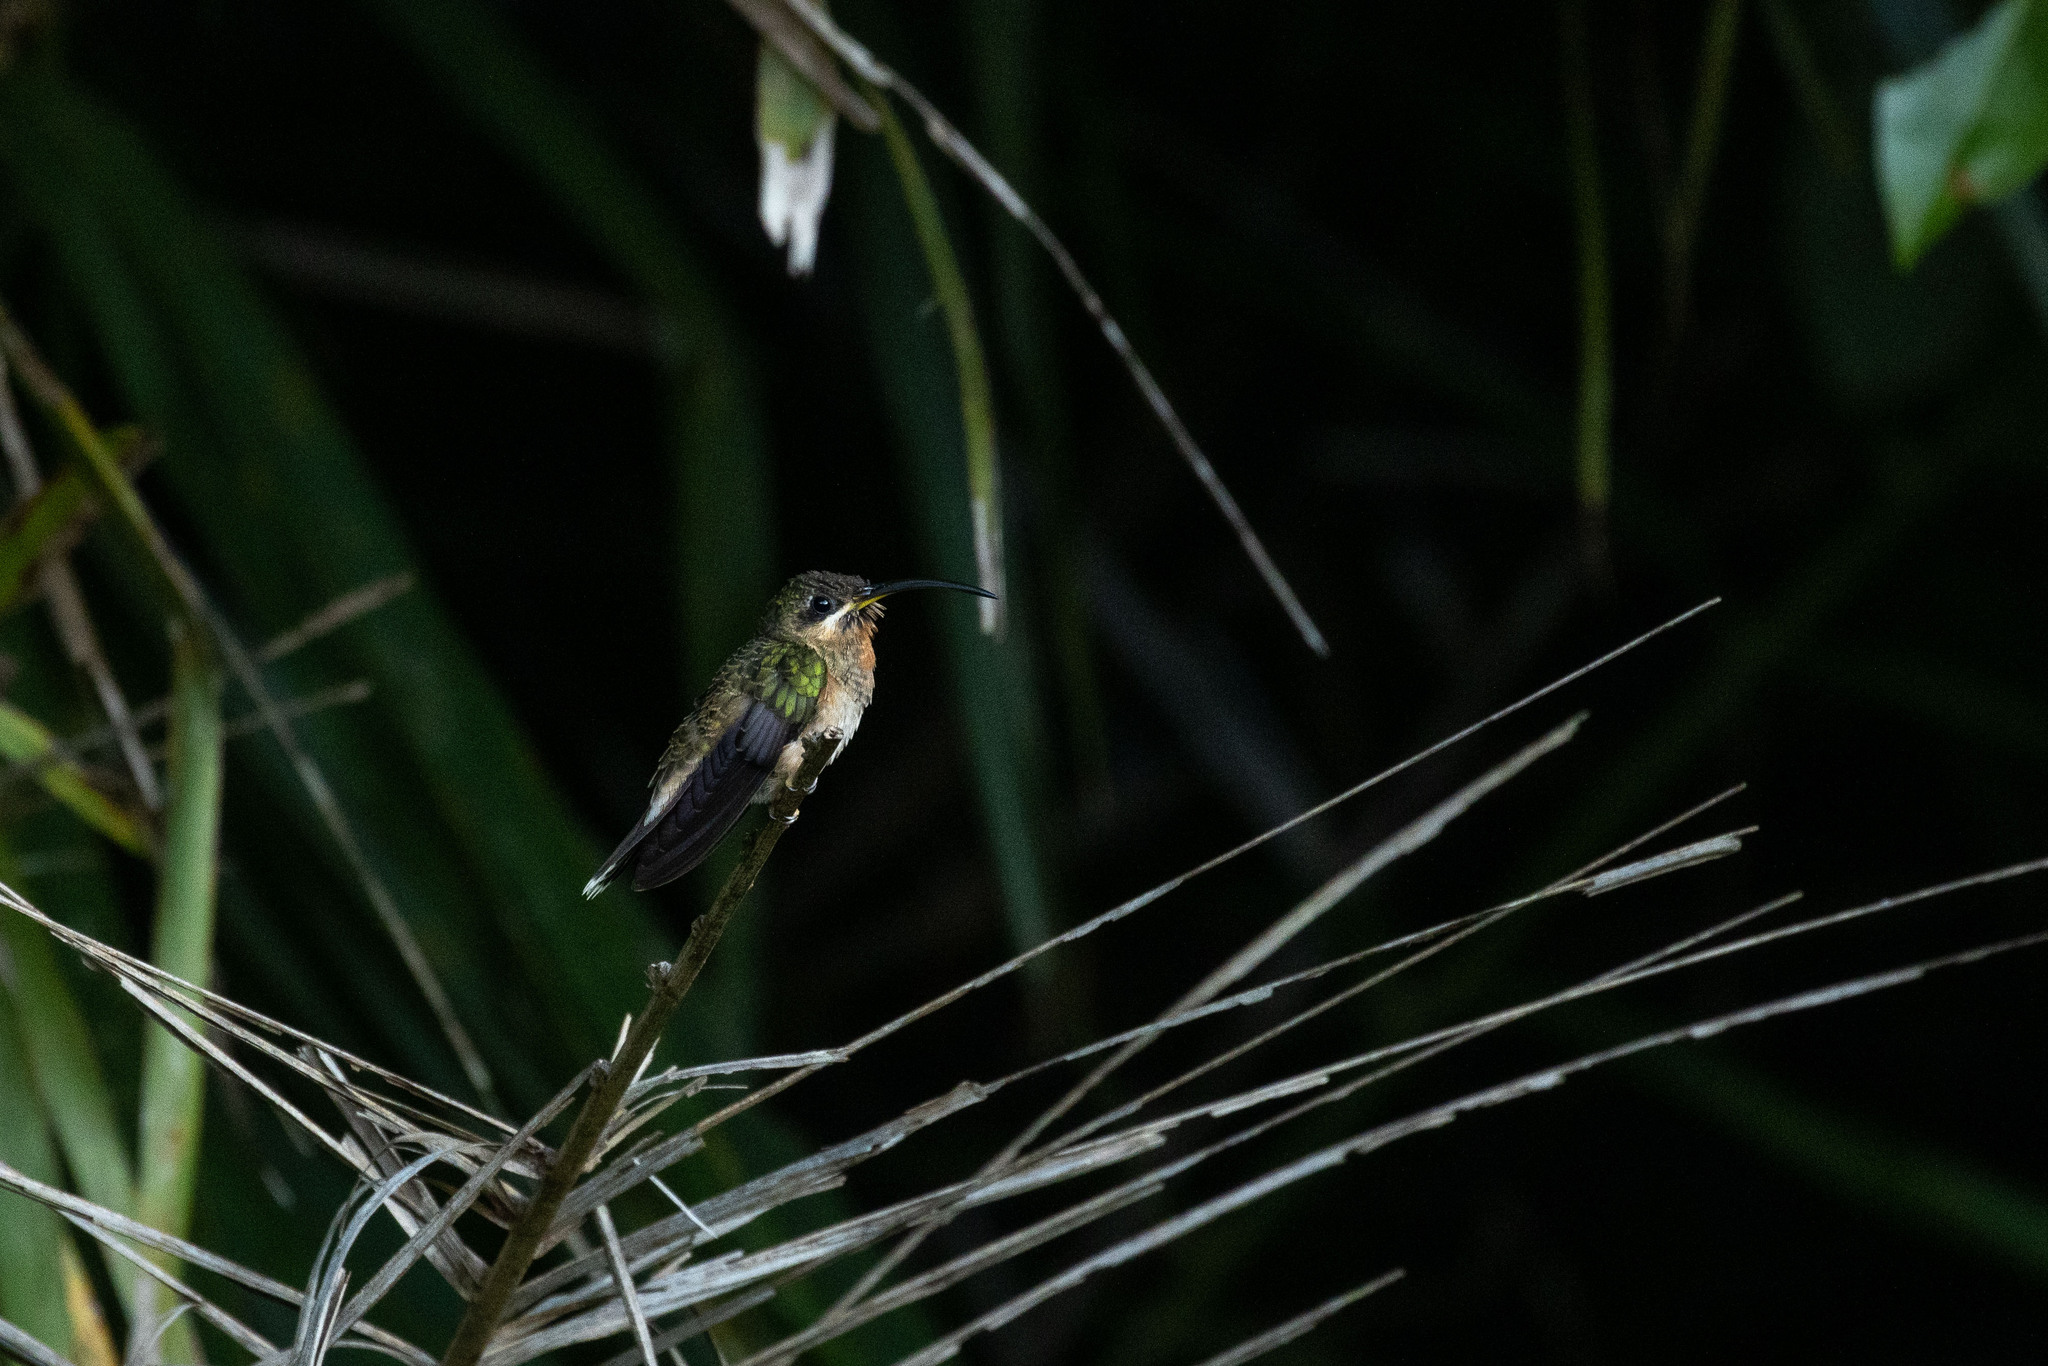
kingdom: Animalia
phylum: Chordata
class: Aves
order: Apodiformes
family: Trochilidae
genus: Glaucis
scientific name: Glaucis hirsutus
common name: Rufous-breasted hermit
